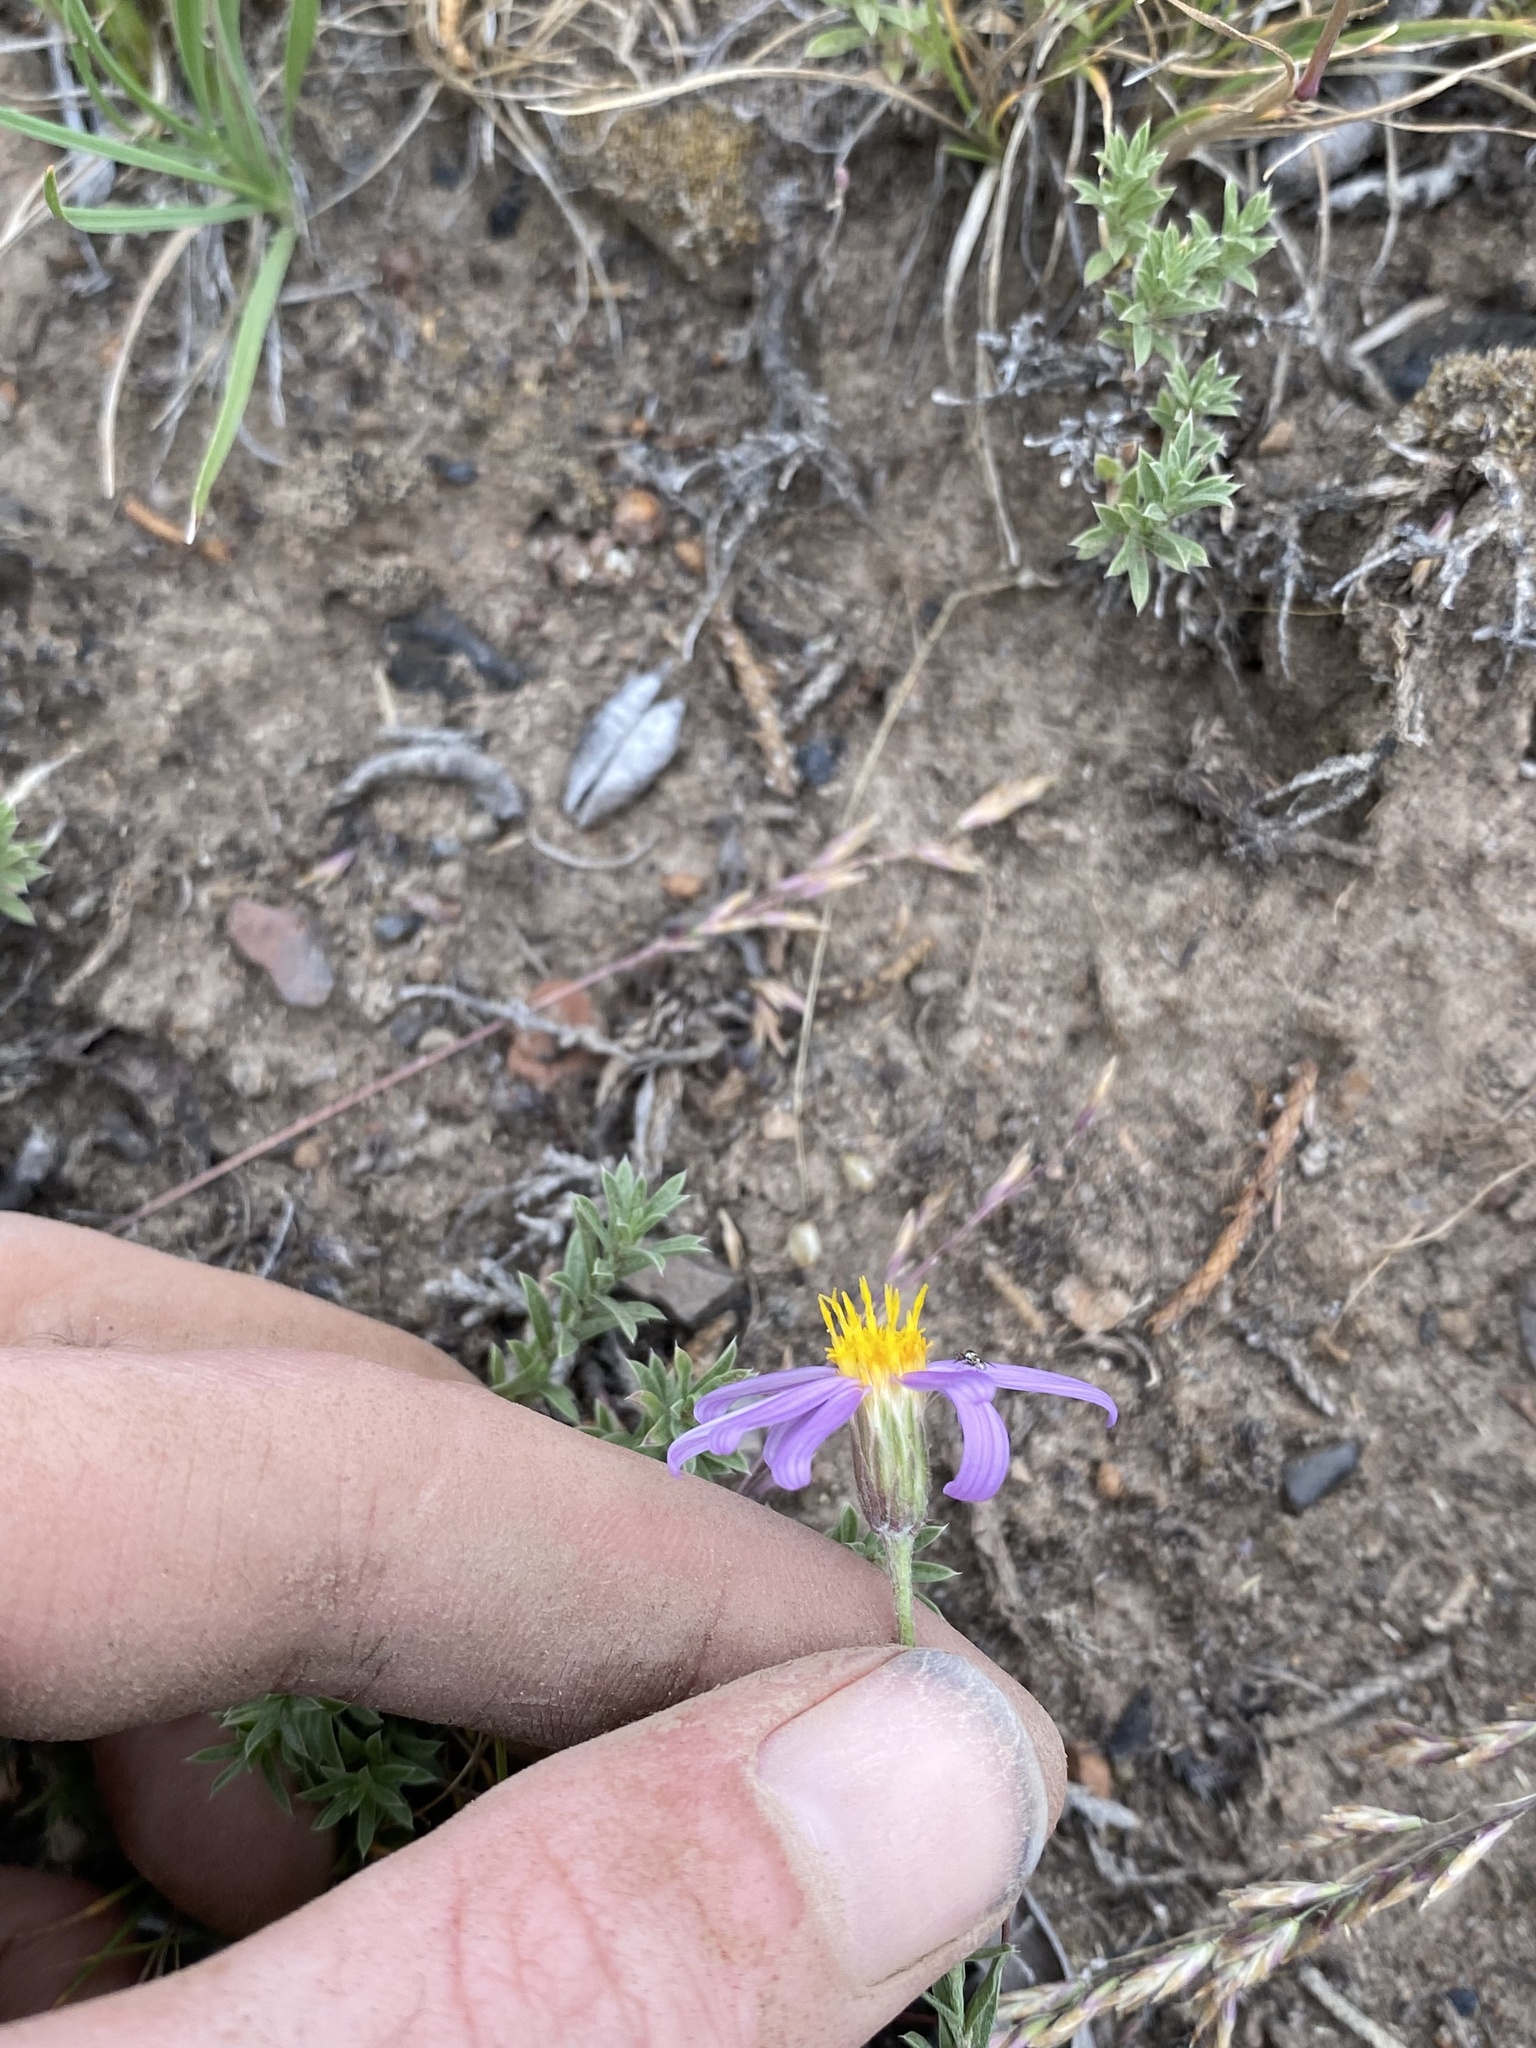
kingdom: Plantae
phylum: Tracheophyta
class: Magnoliopsida
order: Asterales
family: Asteraceae
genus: Ionactis
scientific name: Ionactis alpina
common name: Crag aster
